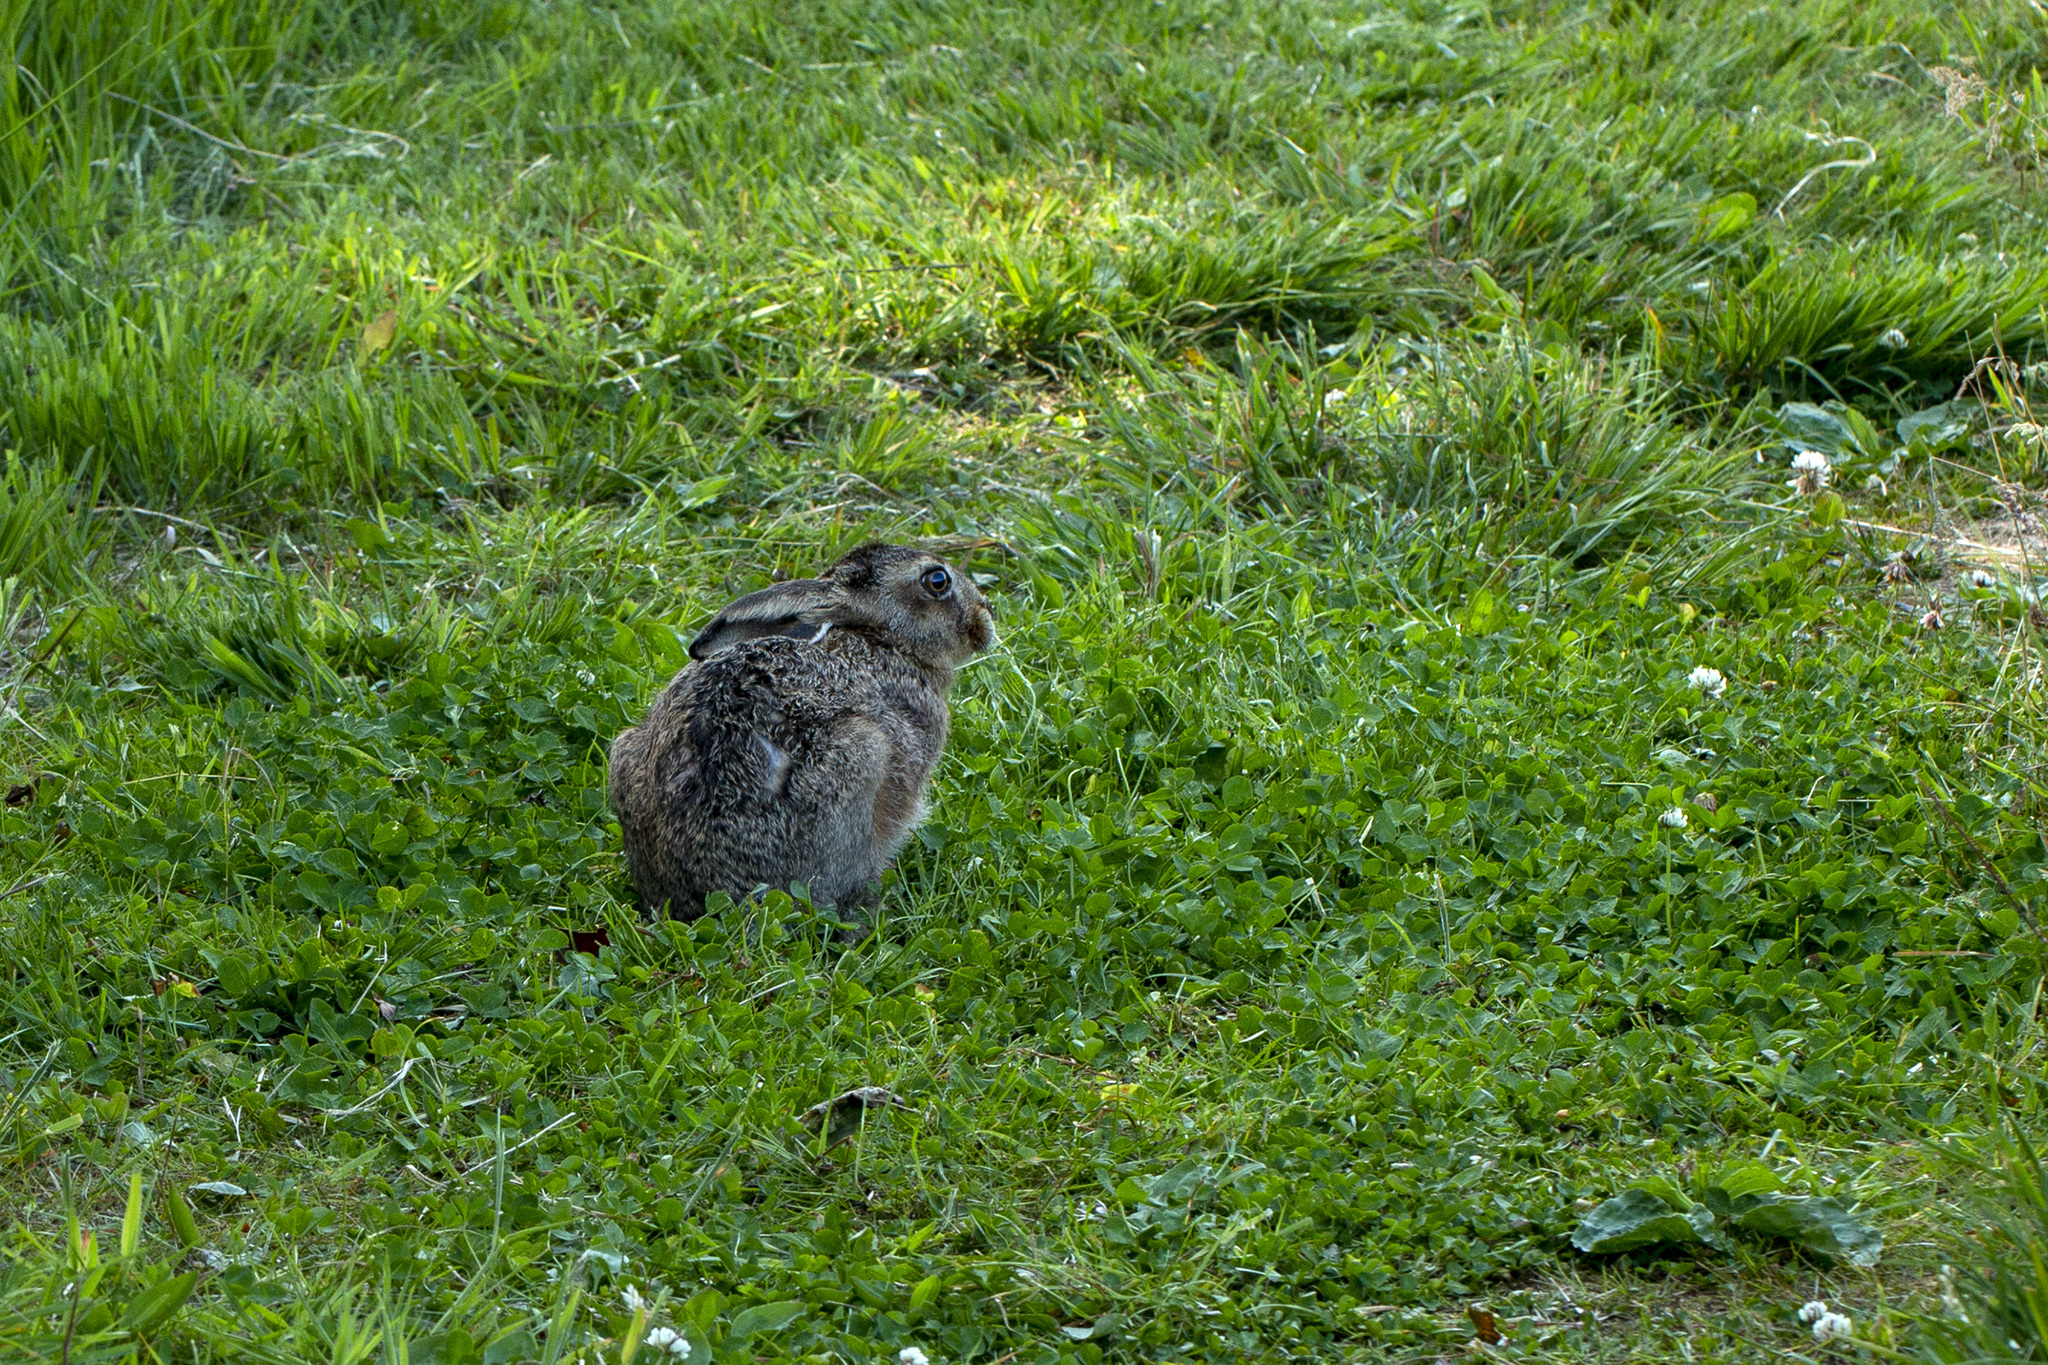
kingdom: Animalia
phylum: Chordata
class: Mammalia
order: Lagomorpha
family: Leporidae
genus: Lepus
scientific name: Lepus europaeus
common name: European hare
